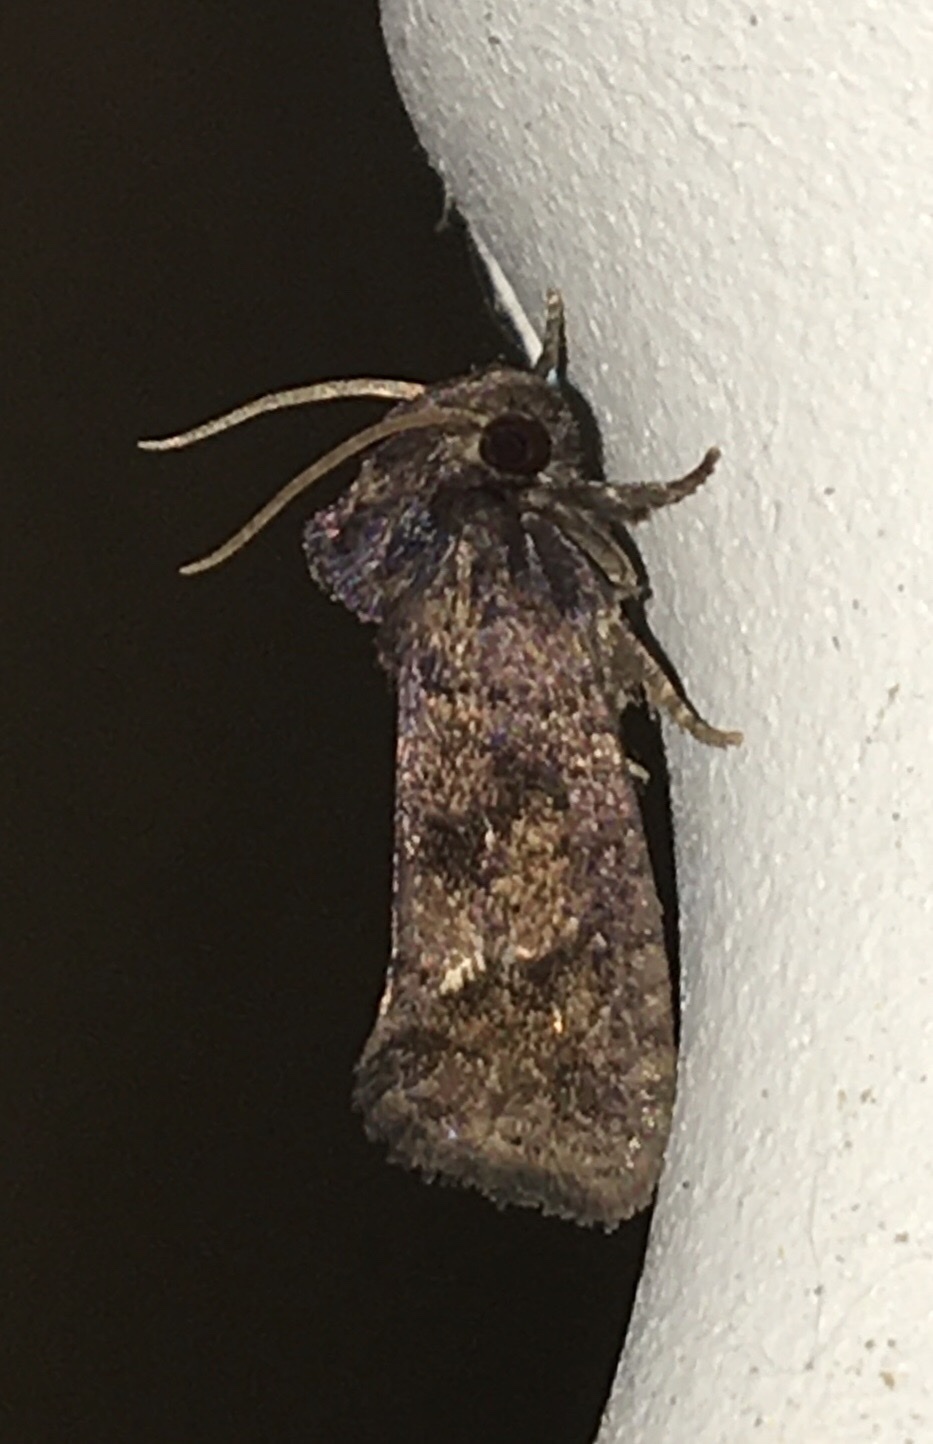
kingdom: Animalia
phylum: Arthropoda
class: Insecta
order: Lepidoptera
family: Tineidae
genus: Acrolophus
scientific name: Acrolophus texanella
